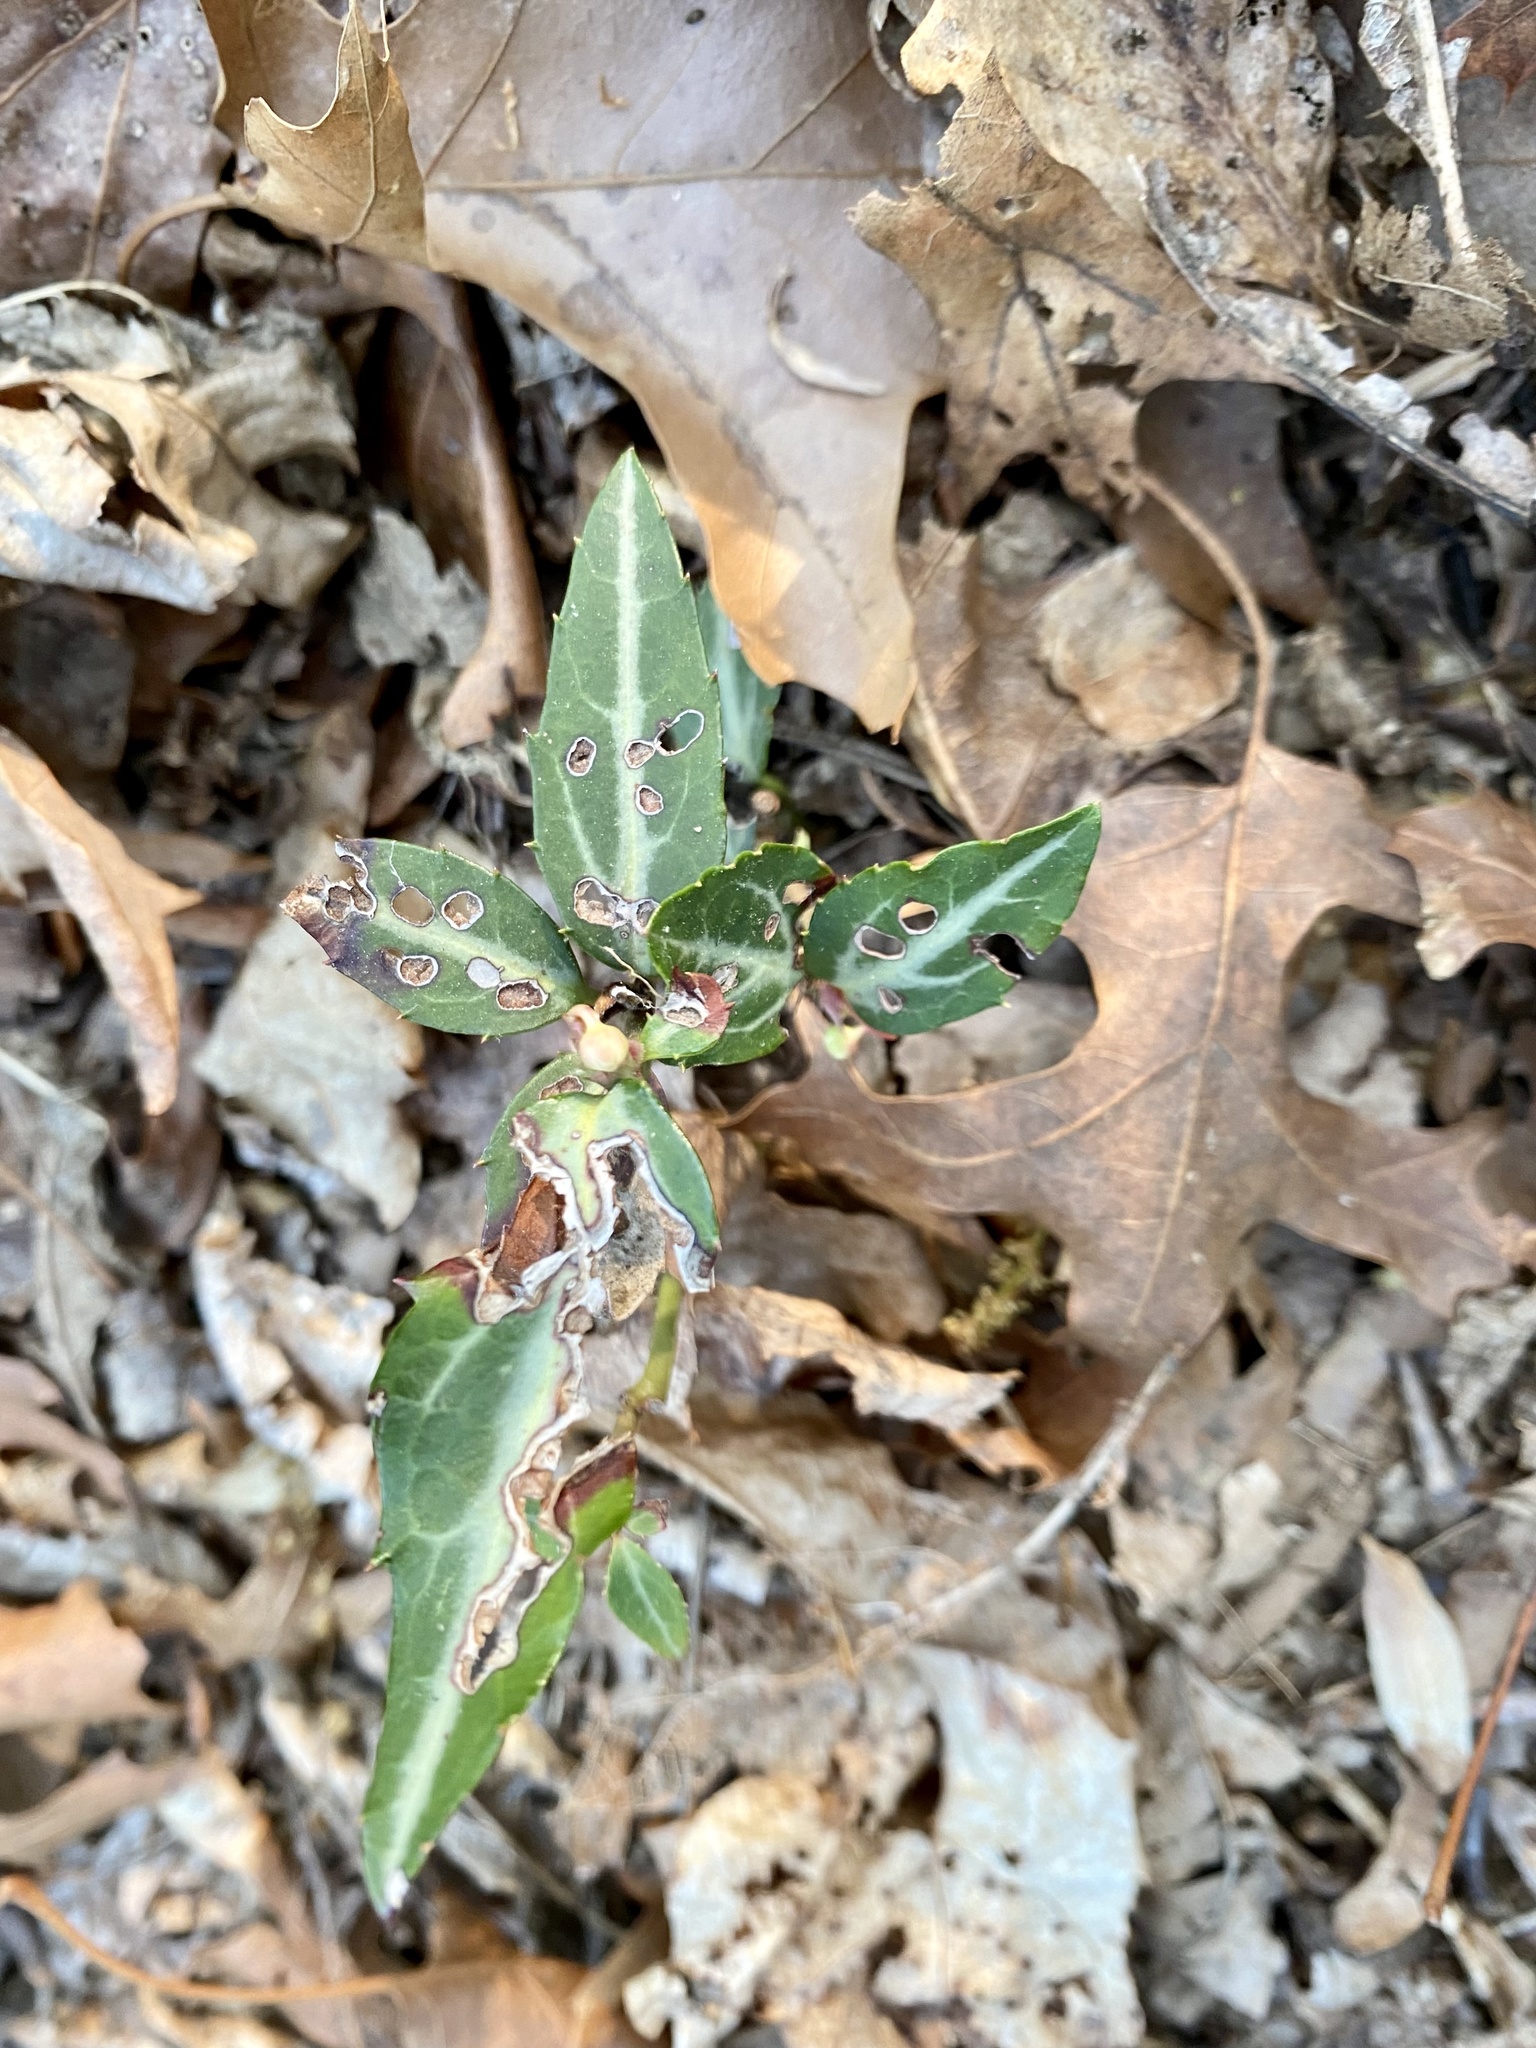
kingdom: Plantae
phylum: Tracheophyta
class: Magnoliopsida
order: Ericales
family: Ericaceae
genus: Chimaphila
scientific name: Chimaphila maculata
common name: Spotted pipsissewa
